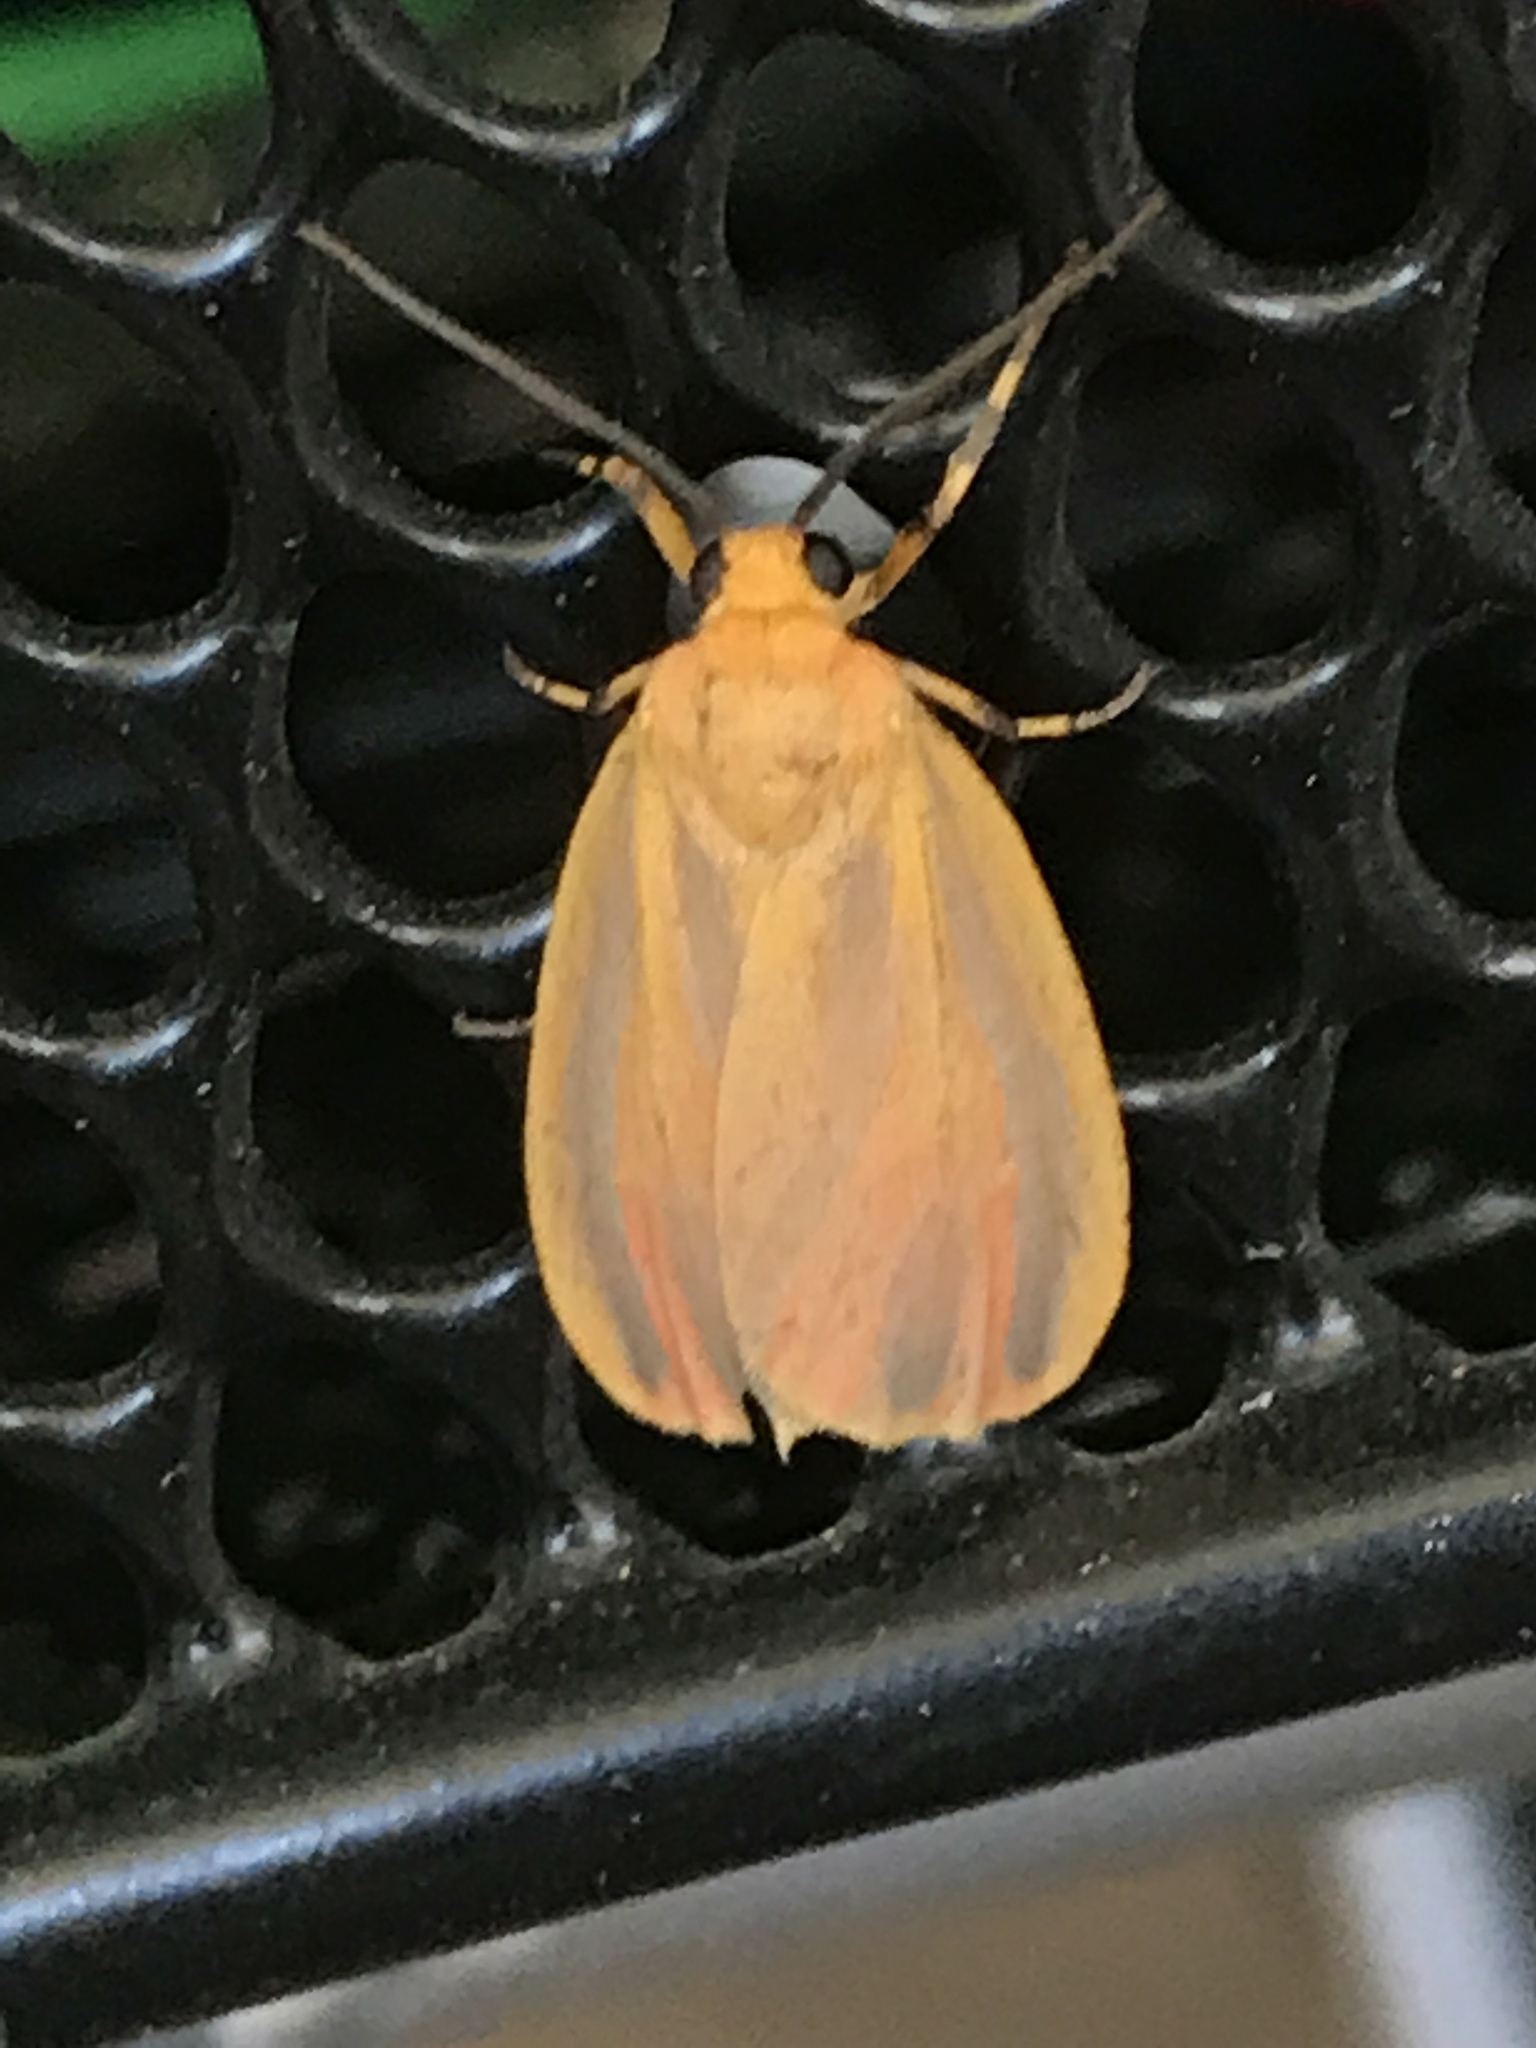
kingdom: Animalia
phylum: Arthropoda
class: Insecta
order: Lepidoptera
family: Erebidae
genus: Hypoprepia
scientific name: Hypoprepia miniata
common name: Scarlet-winged lichen moth
